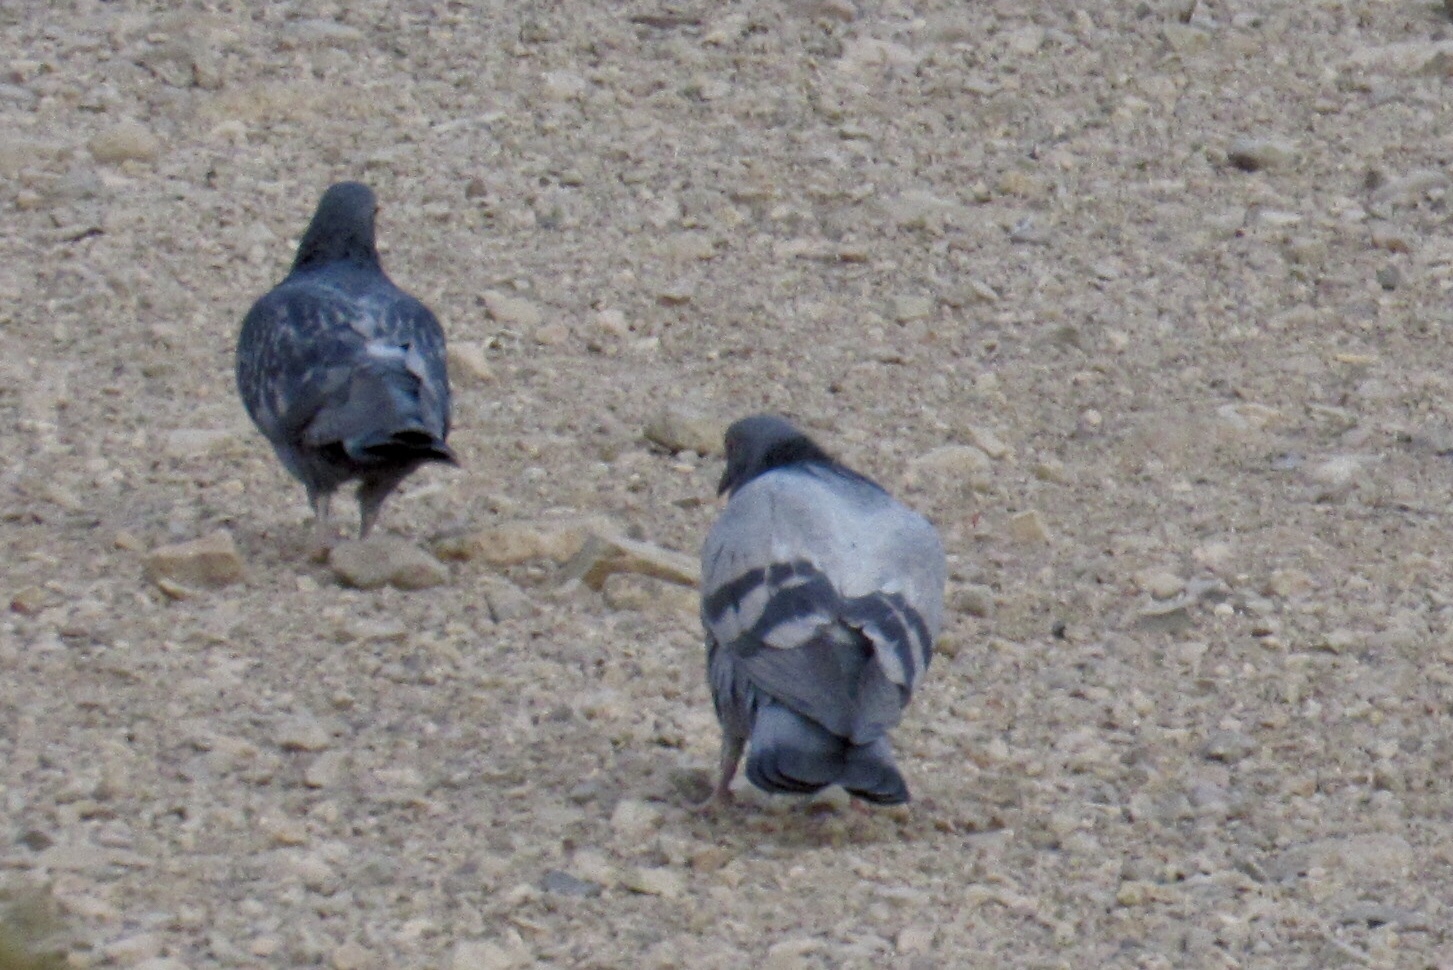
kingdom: Animalia
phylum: Chordata
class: Aves
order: Columbiformes
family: Columbidae
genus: Columba
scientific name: Columba livia
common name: Rock pigeon
